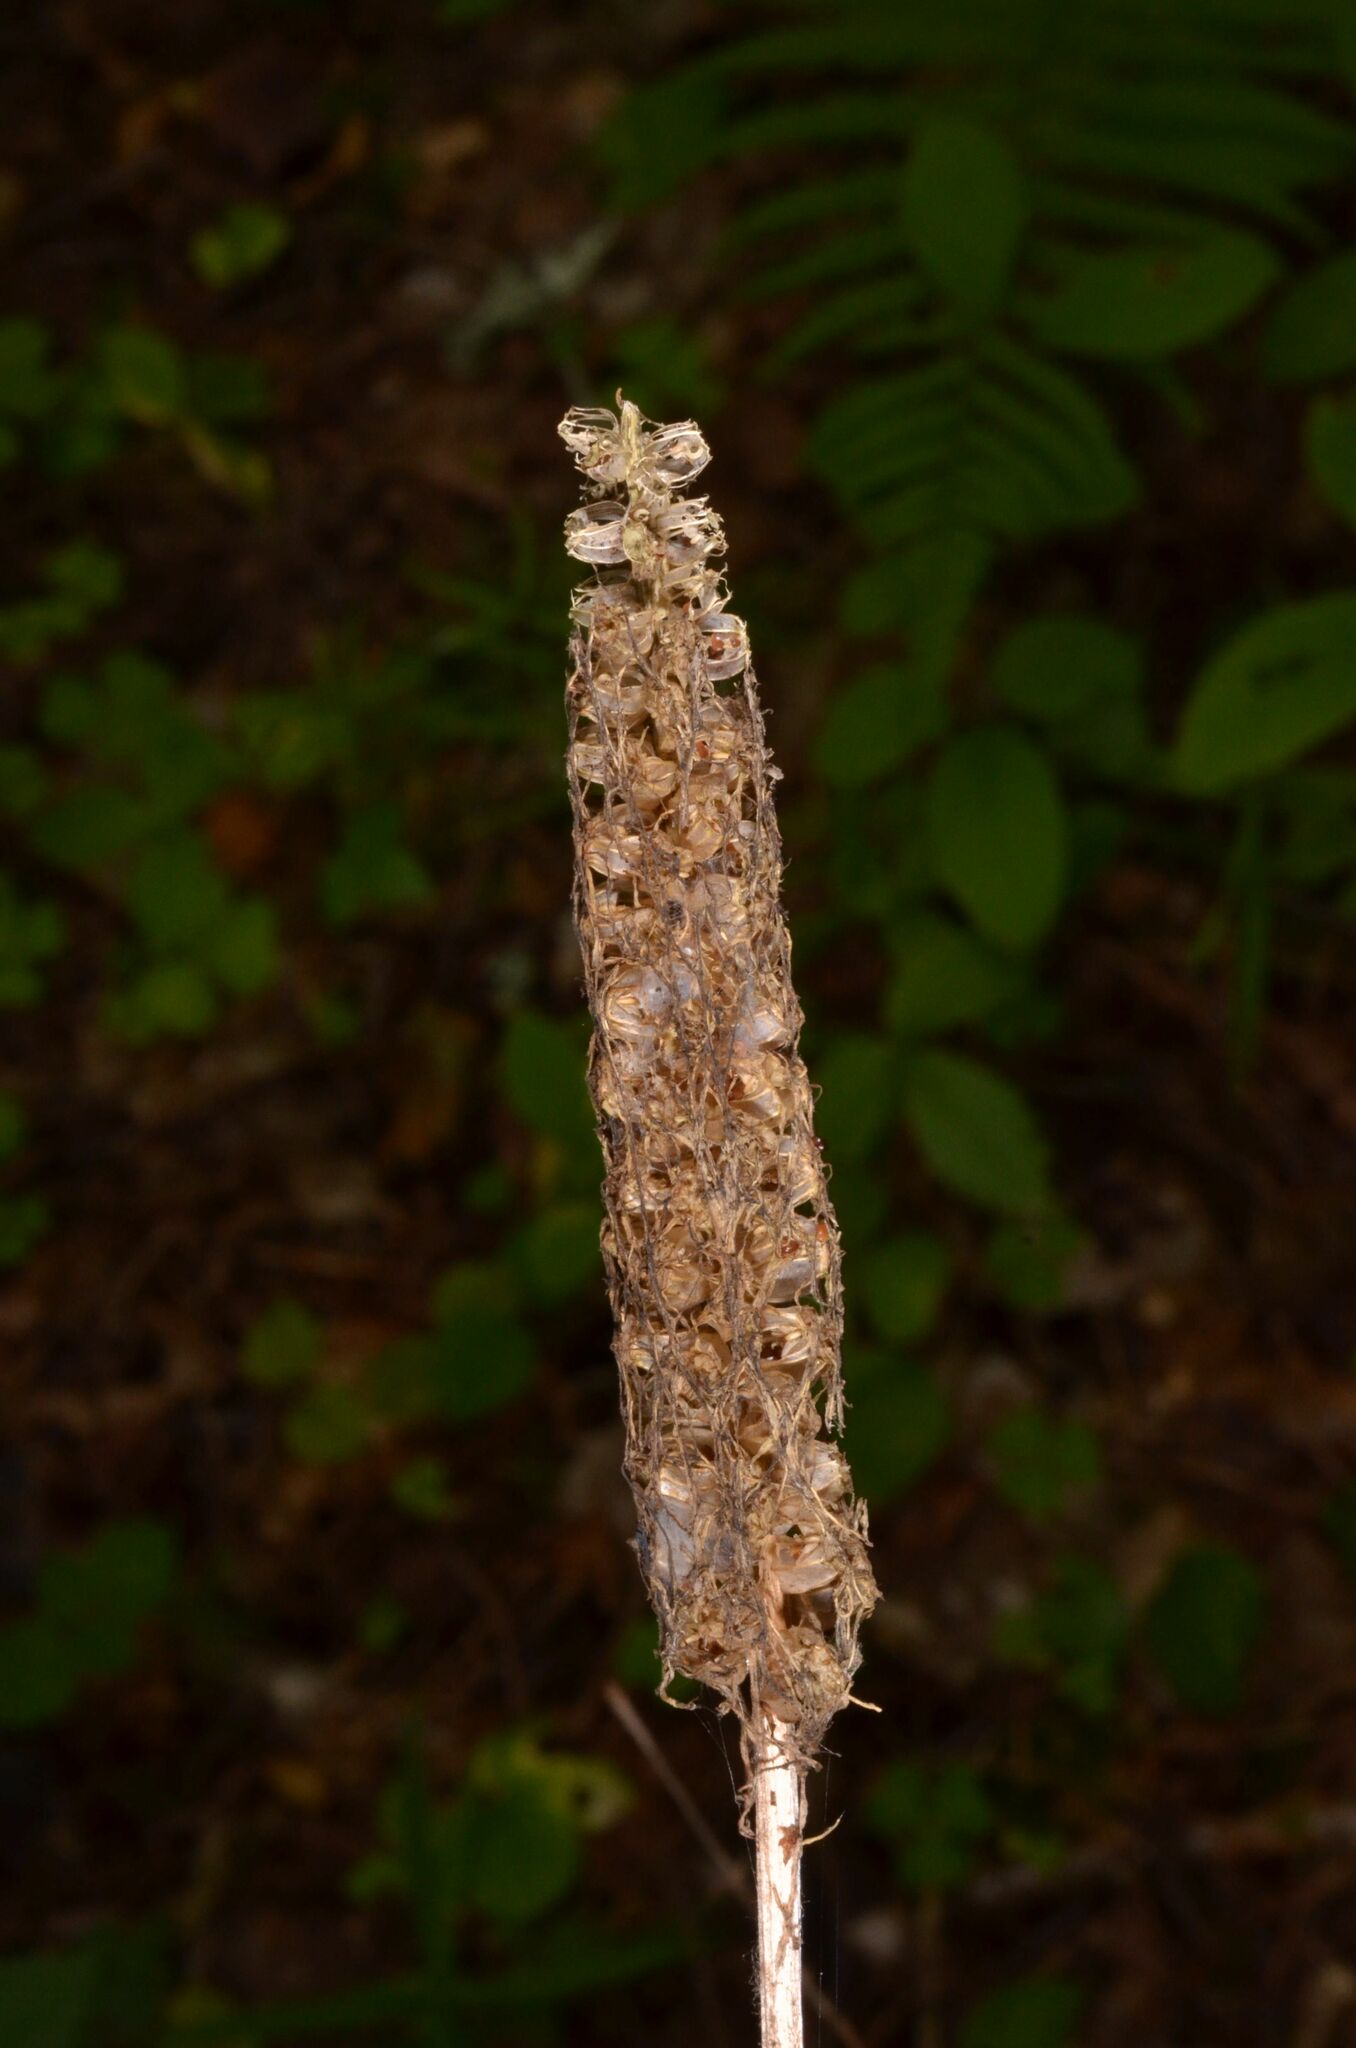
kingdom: Plantae
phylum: Tracheophyta
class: Magnoliopsida
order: Asterales
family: Campanulaceae
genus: Phyteuma
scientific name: Phyteuma spicatum
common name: Spiked rampion
